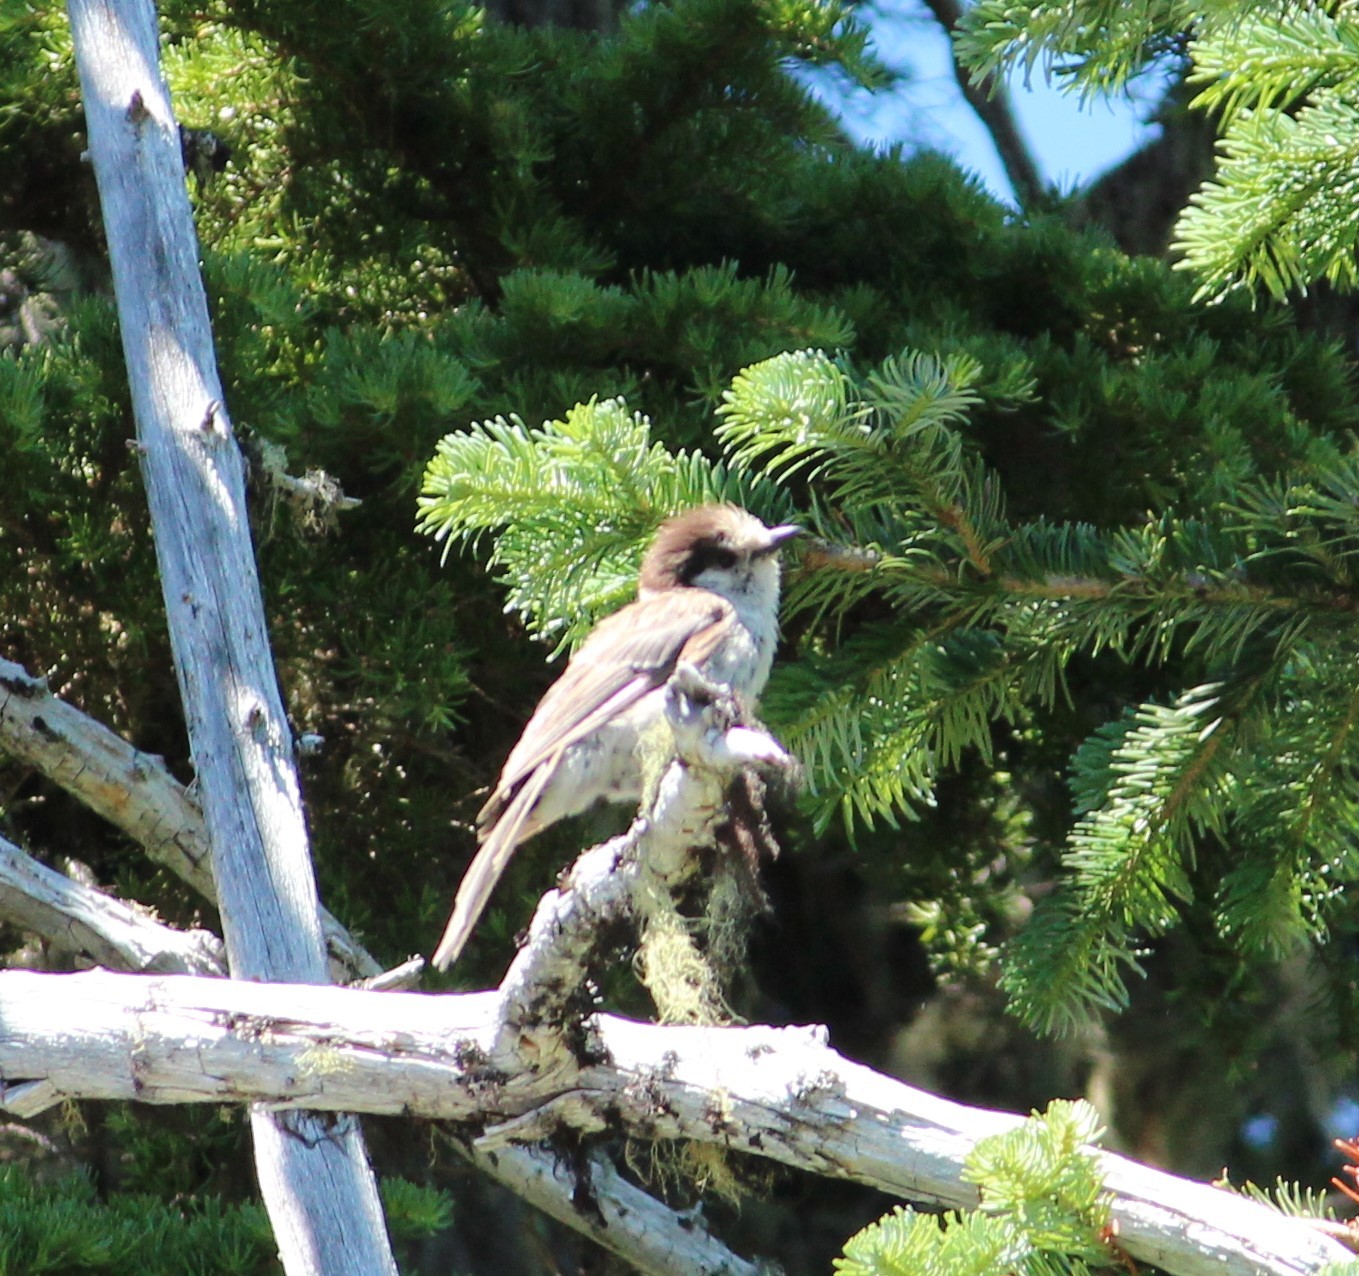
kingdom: Animalia
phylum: Chordata
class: Aves
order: Passeriformes
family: Corvidae
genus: Perisoreus
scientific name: Perisoreus canadensis
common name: Gray jay
